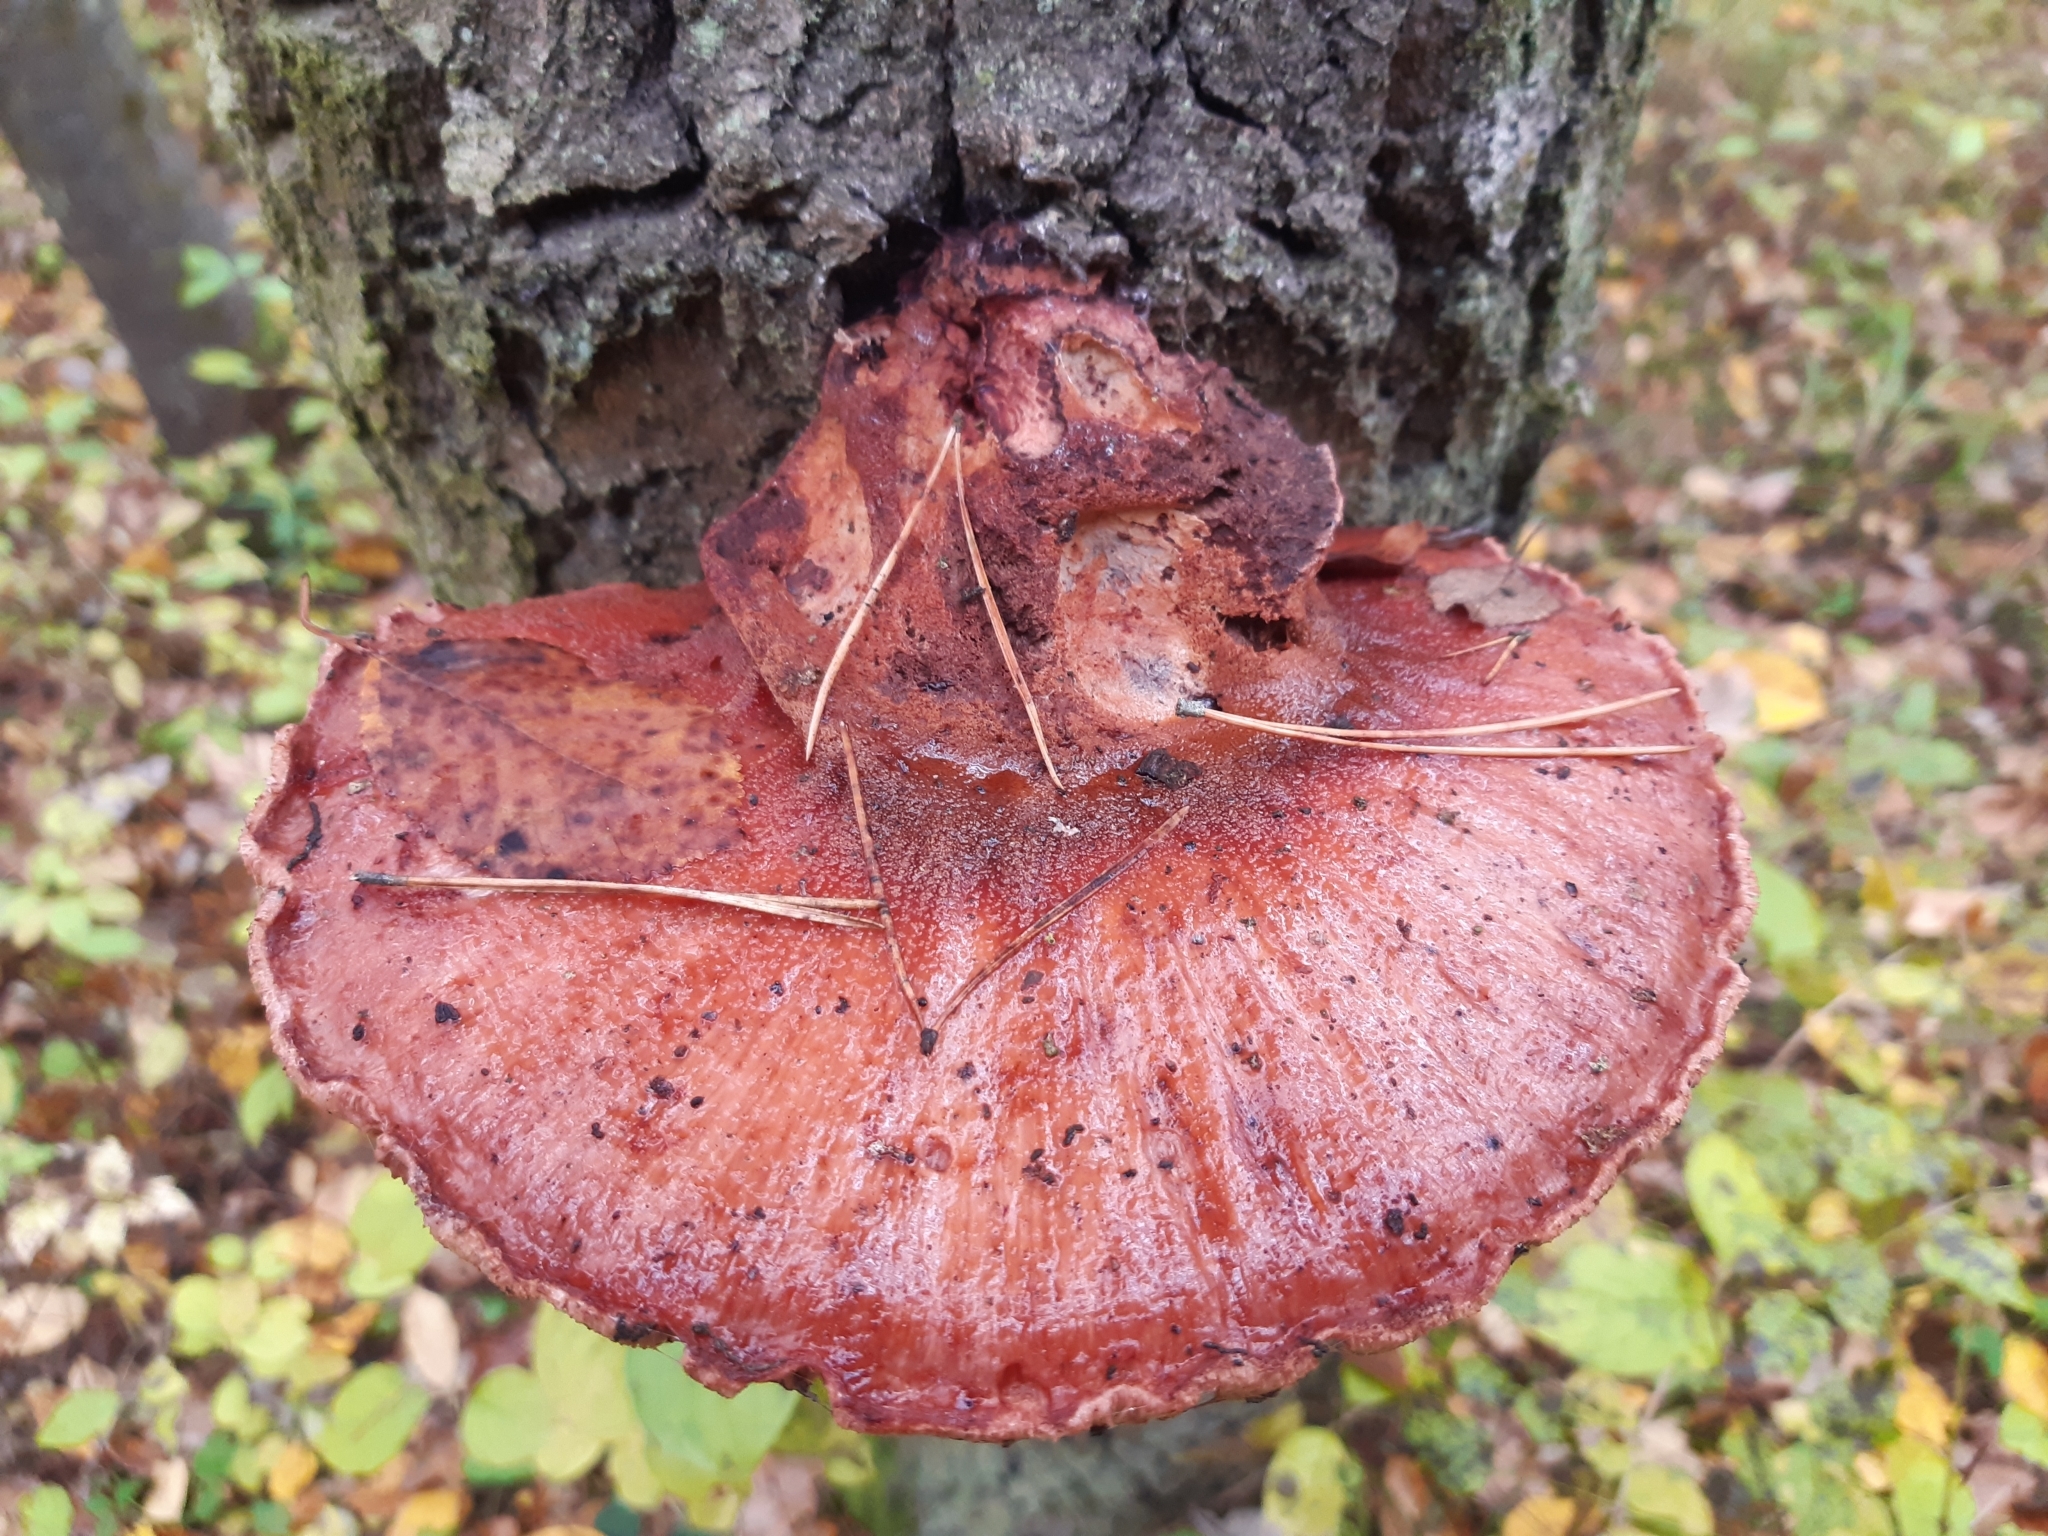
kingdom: Fungi
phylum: Basidiomycota
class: Agaricomycetes
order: Agaricales
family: Fistulinaceae
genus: Fistulina
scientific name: Fistulina hepatica
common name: Beef-steak fungus
